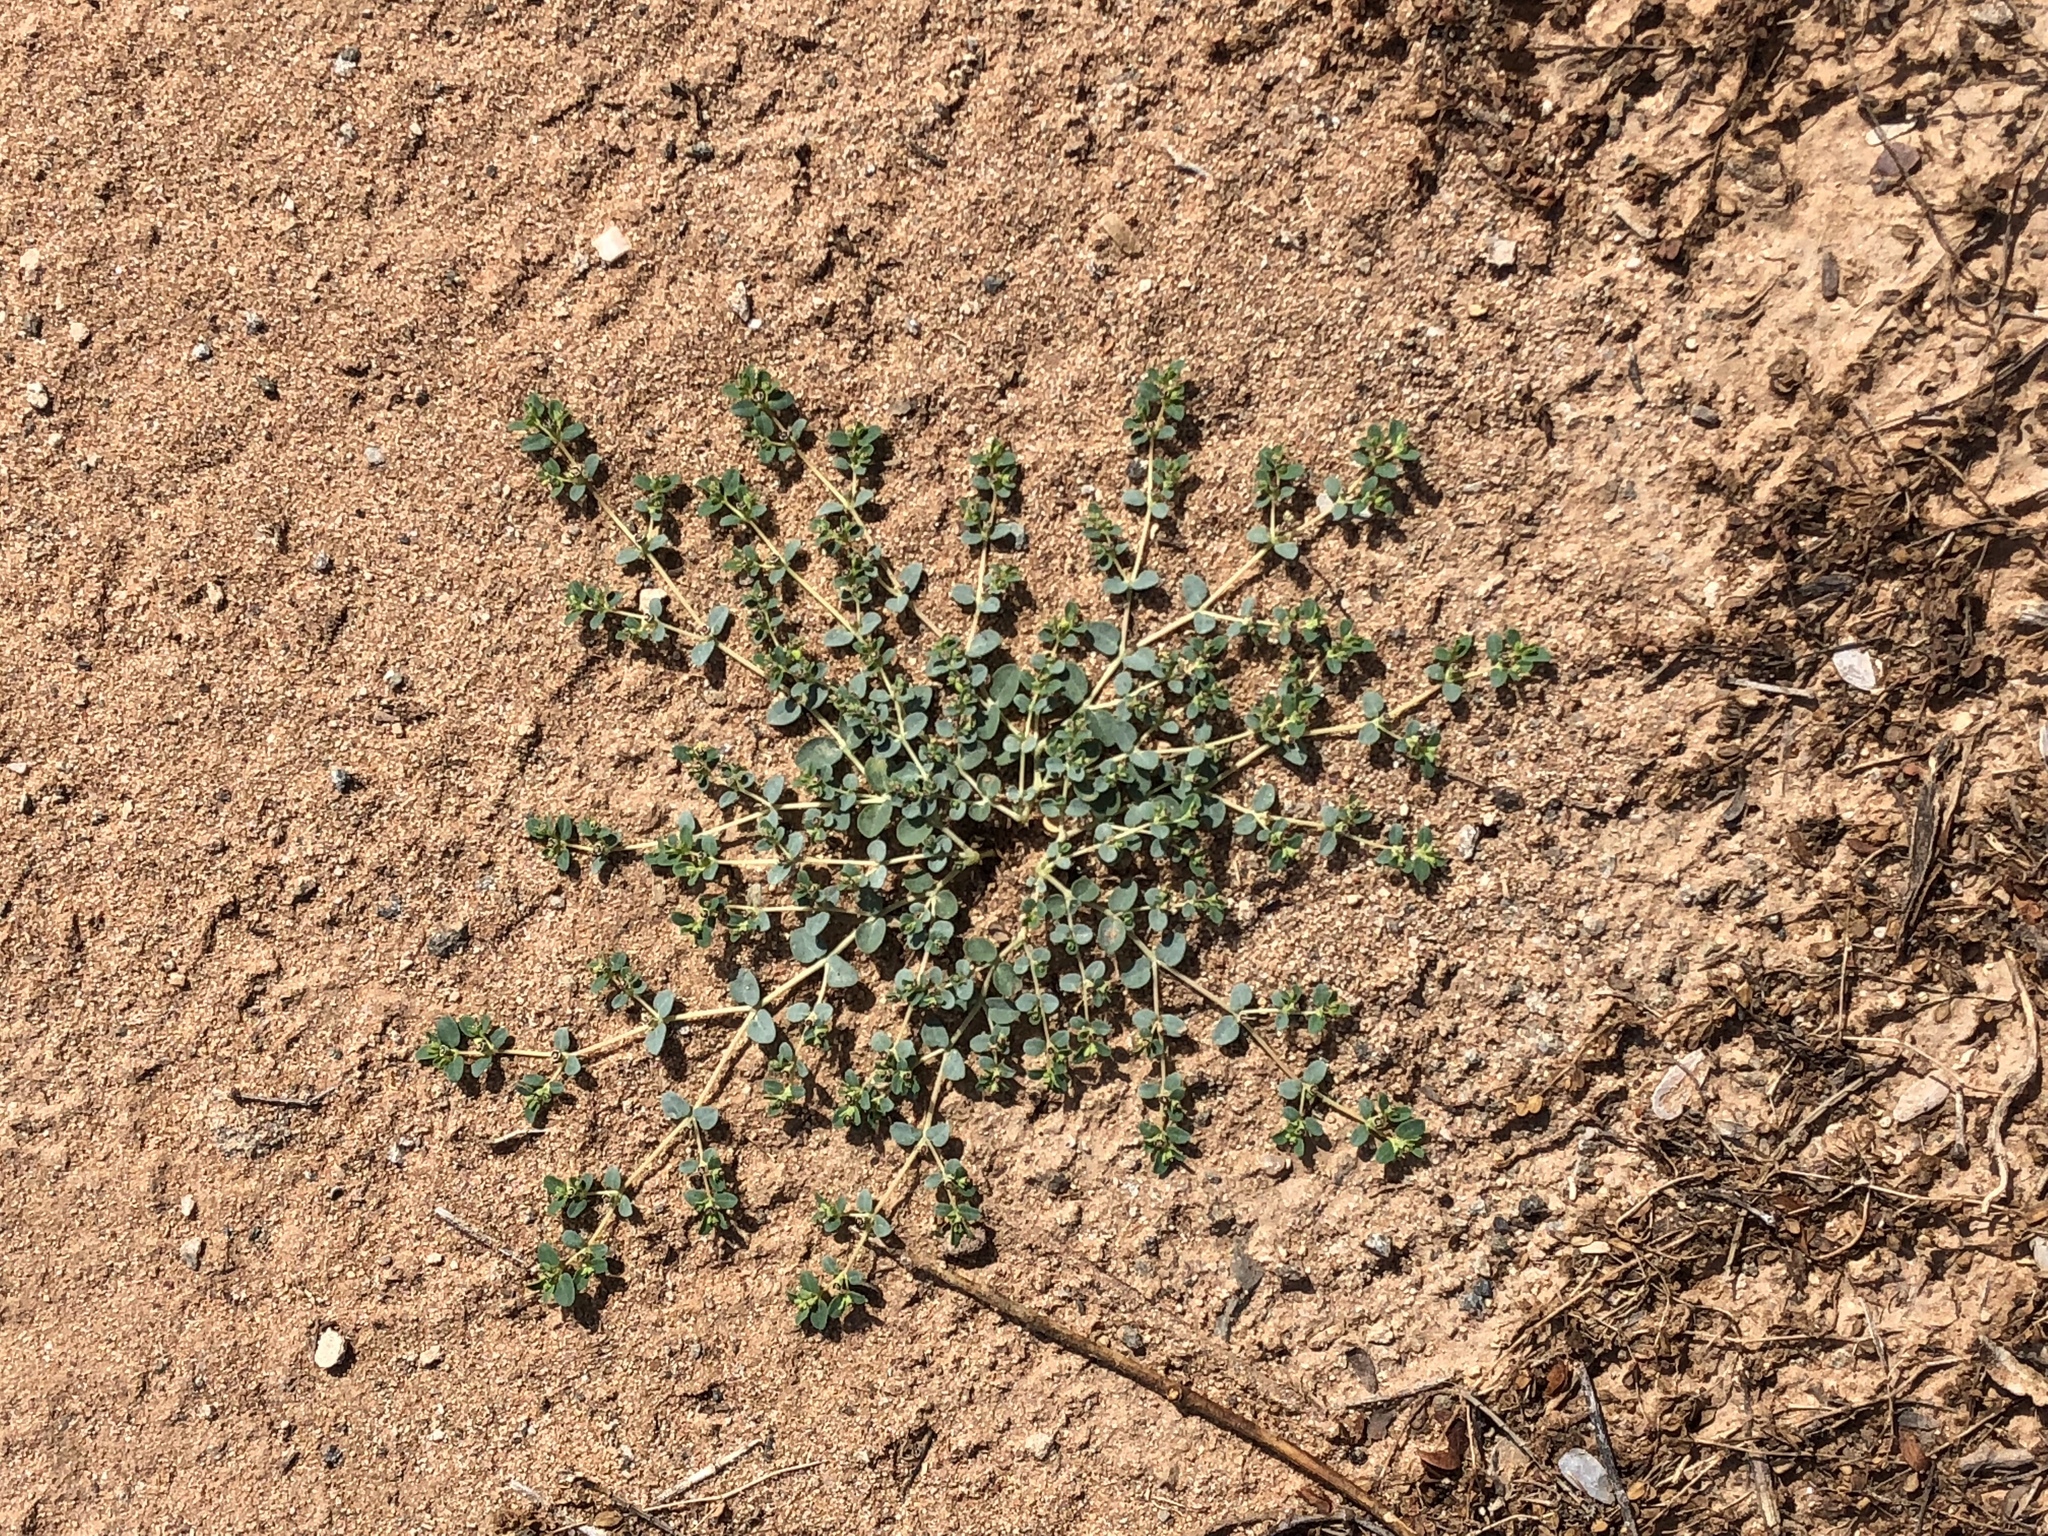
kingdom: Plantae
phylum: Tracheophyta
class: Magnoliopsida
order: Malpighiales
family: Euphorbiaceae
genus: Euphorbia
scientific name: Euphorbia polycarpa
